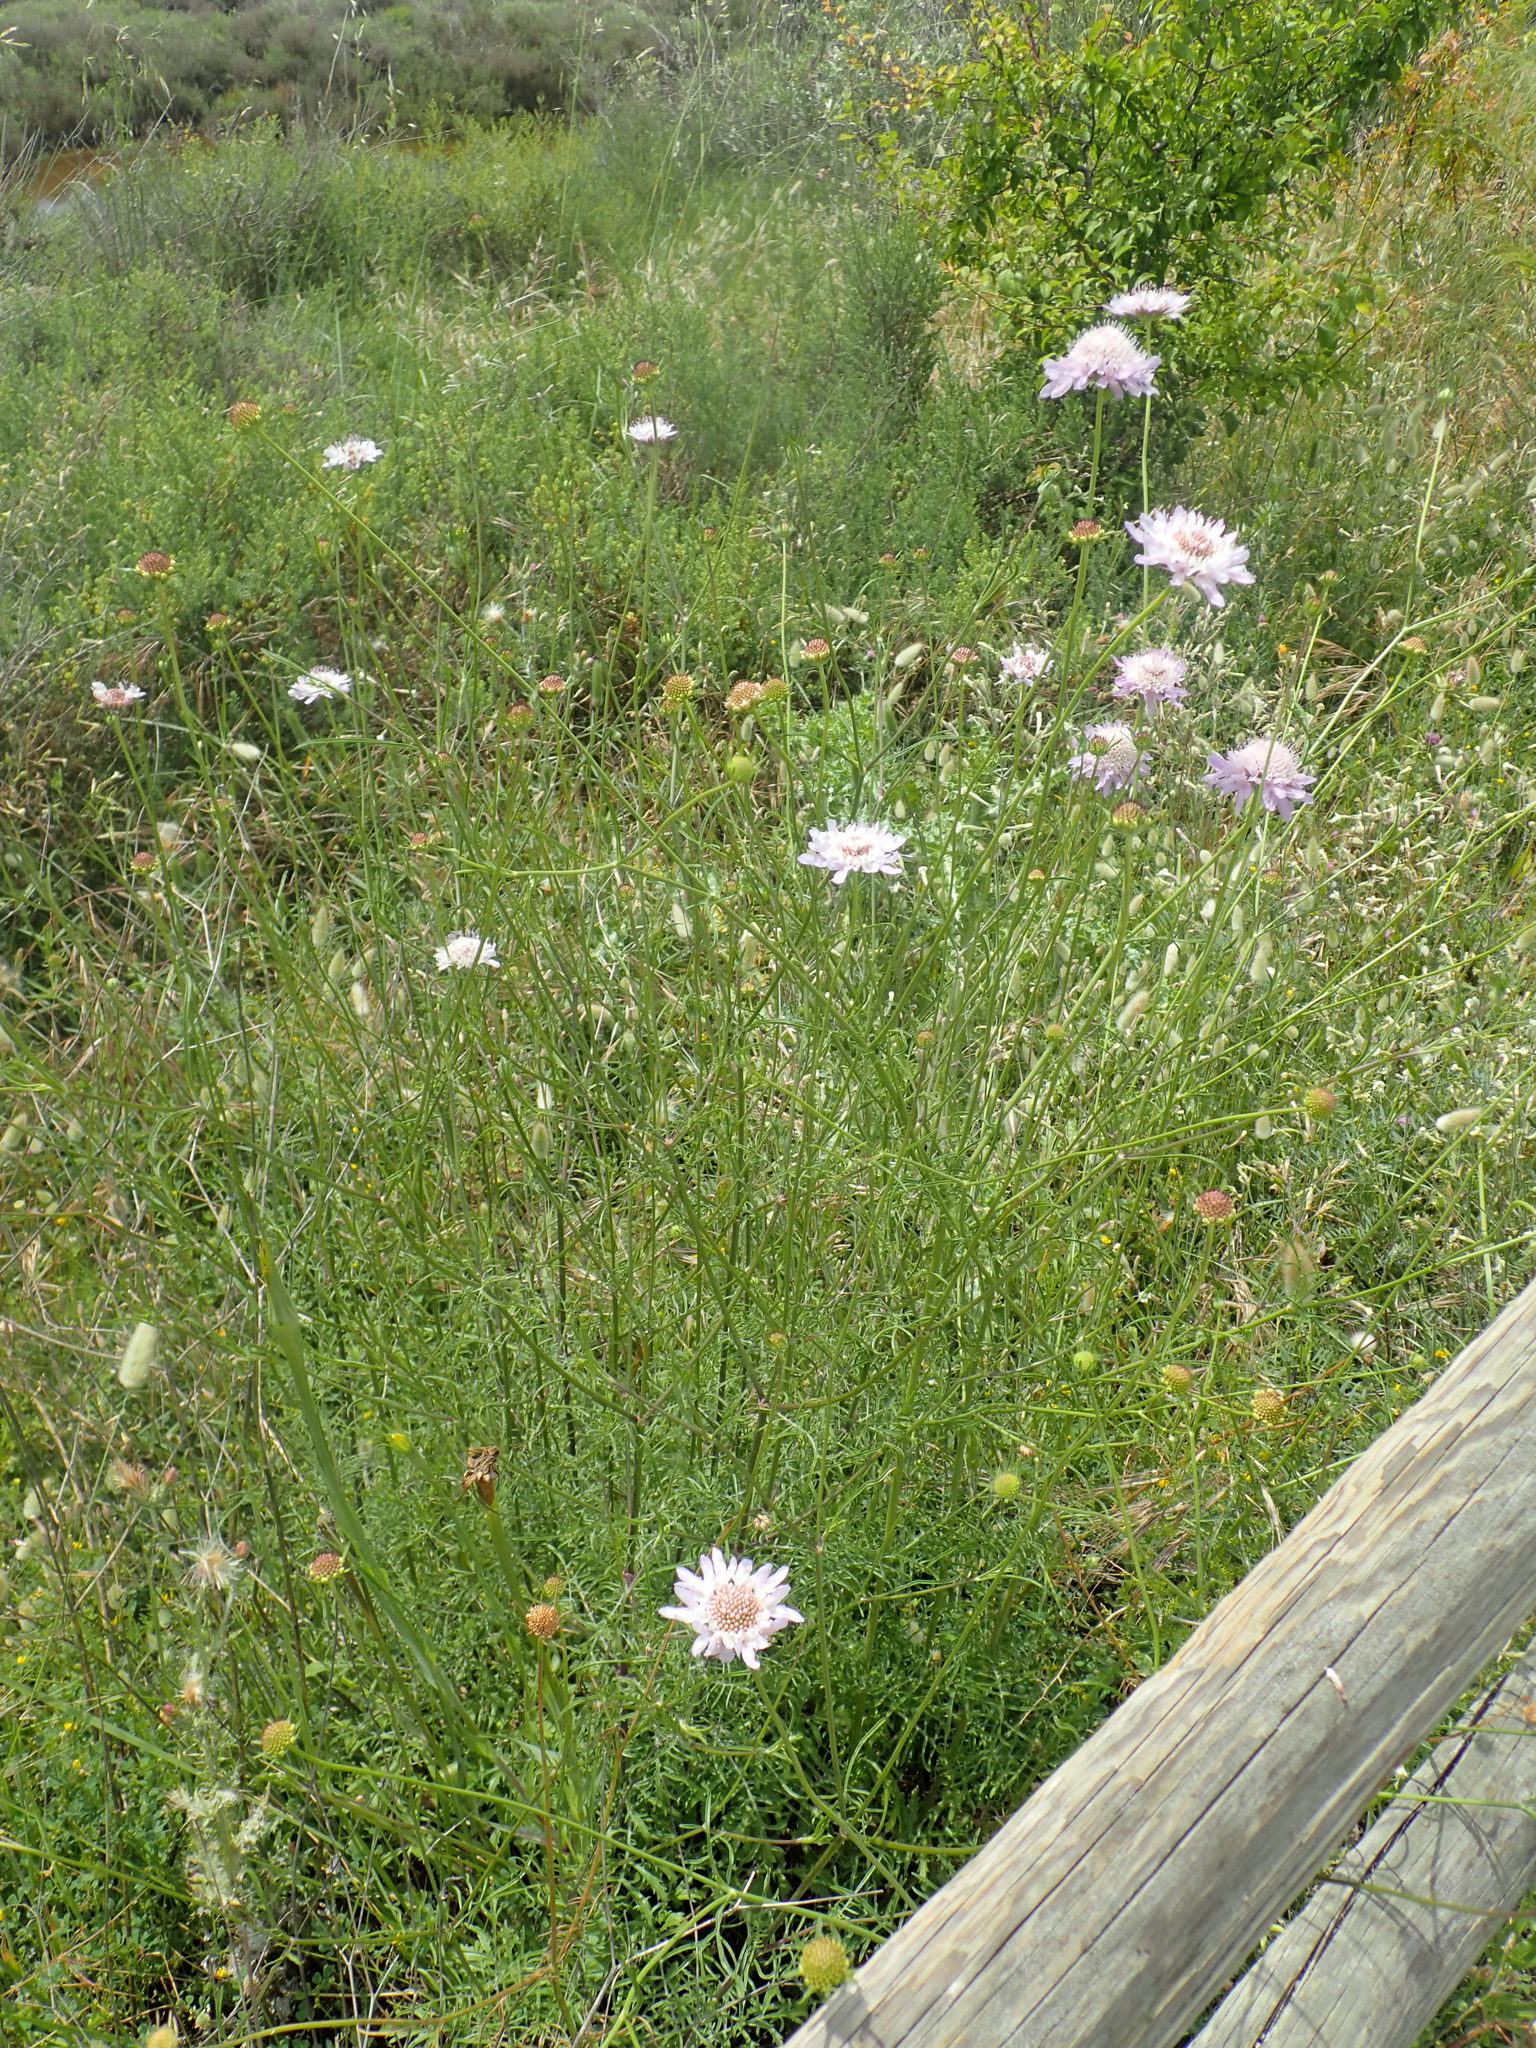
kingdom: Plantae
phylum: Tracheophyta
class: Magnoliopsida
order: Dipsacales
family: Caprifoliaceae
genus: Sixalix
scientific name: Sixalix atropurpurea
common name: Sweet scabious
